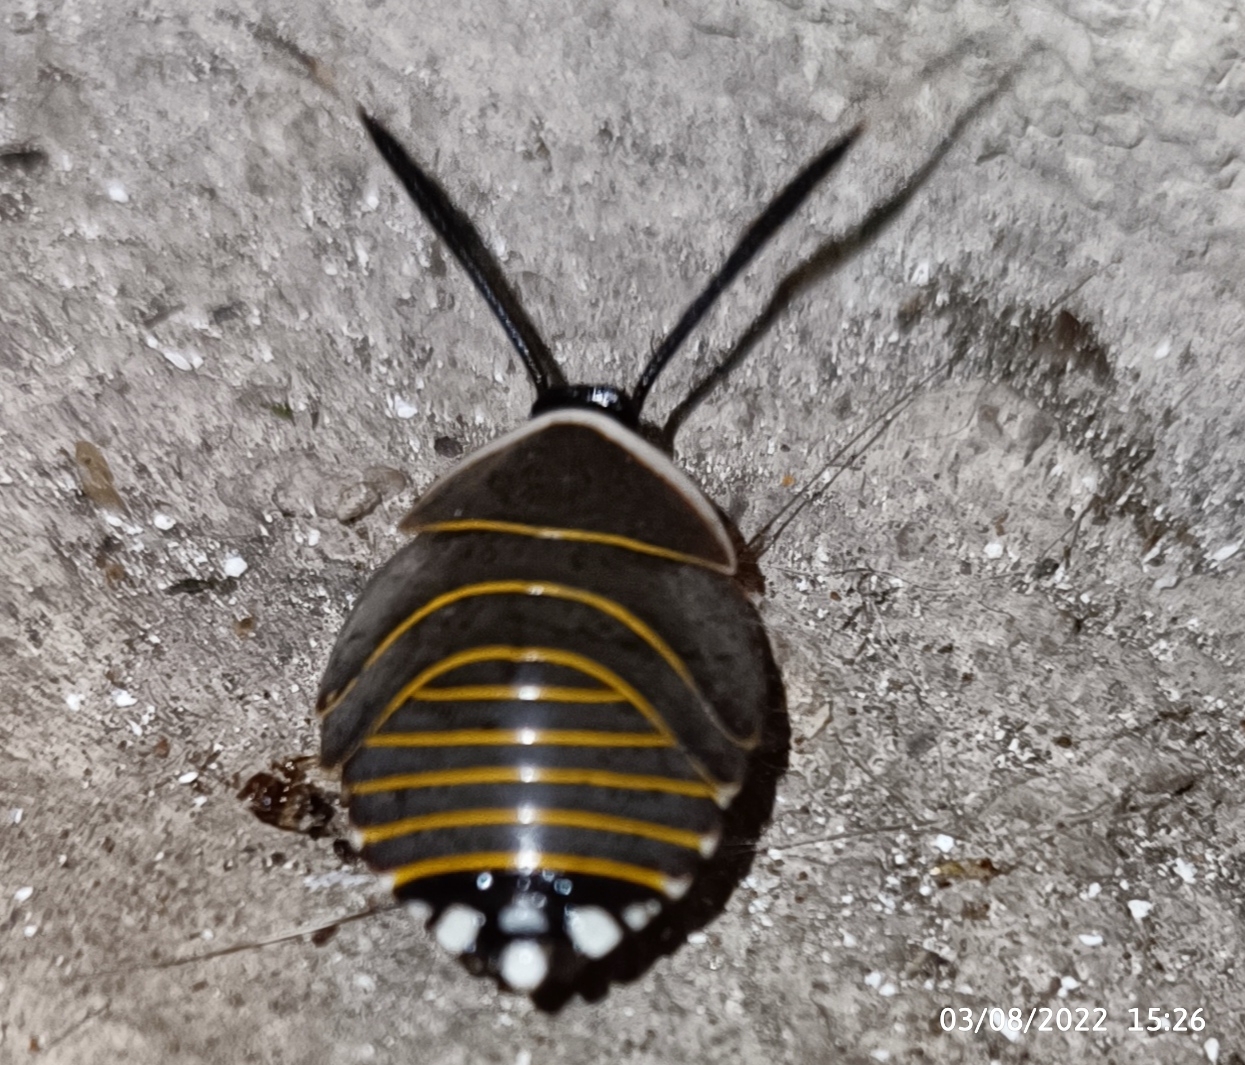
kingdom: Animalia
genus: Rochaina
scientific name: Rochaina
